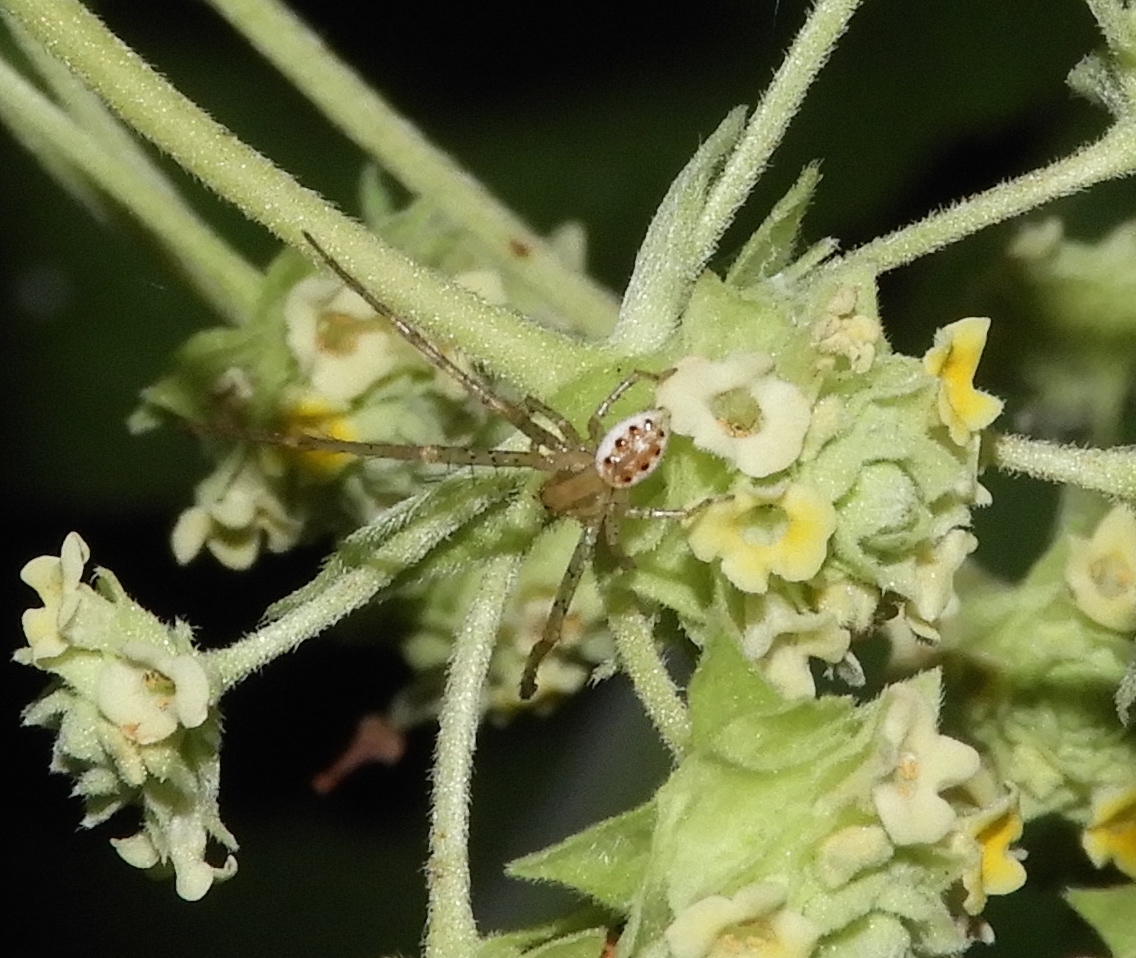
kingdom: Animalia
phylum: Arthropoda
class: Arachnida
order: Araneae
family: Thomisidae
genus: Isaloides
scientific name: Isaloides
